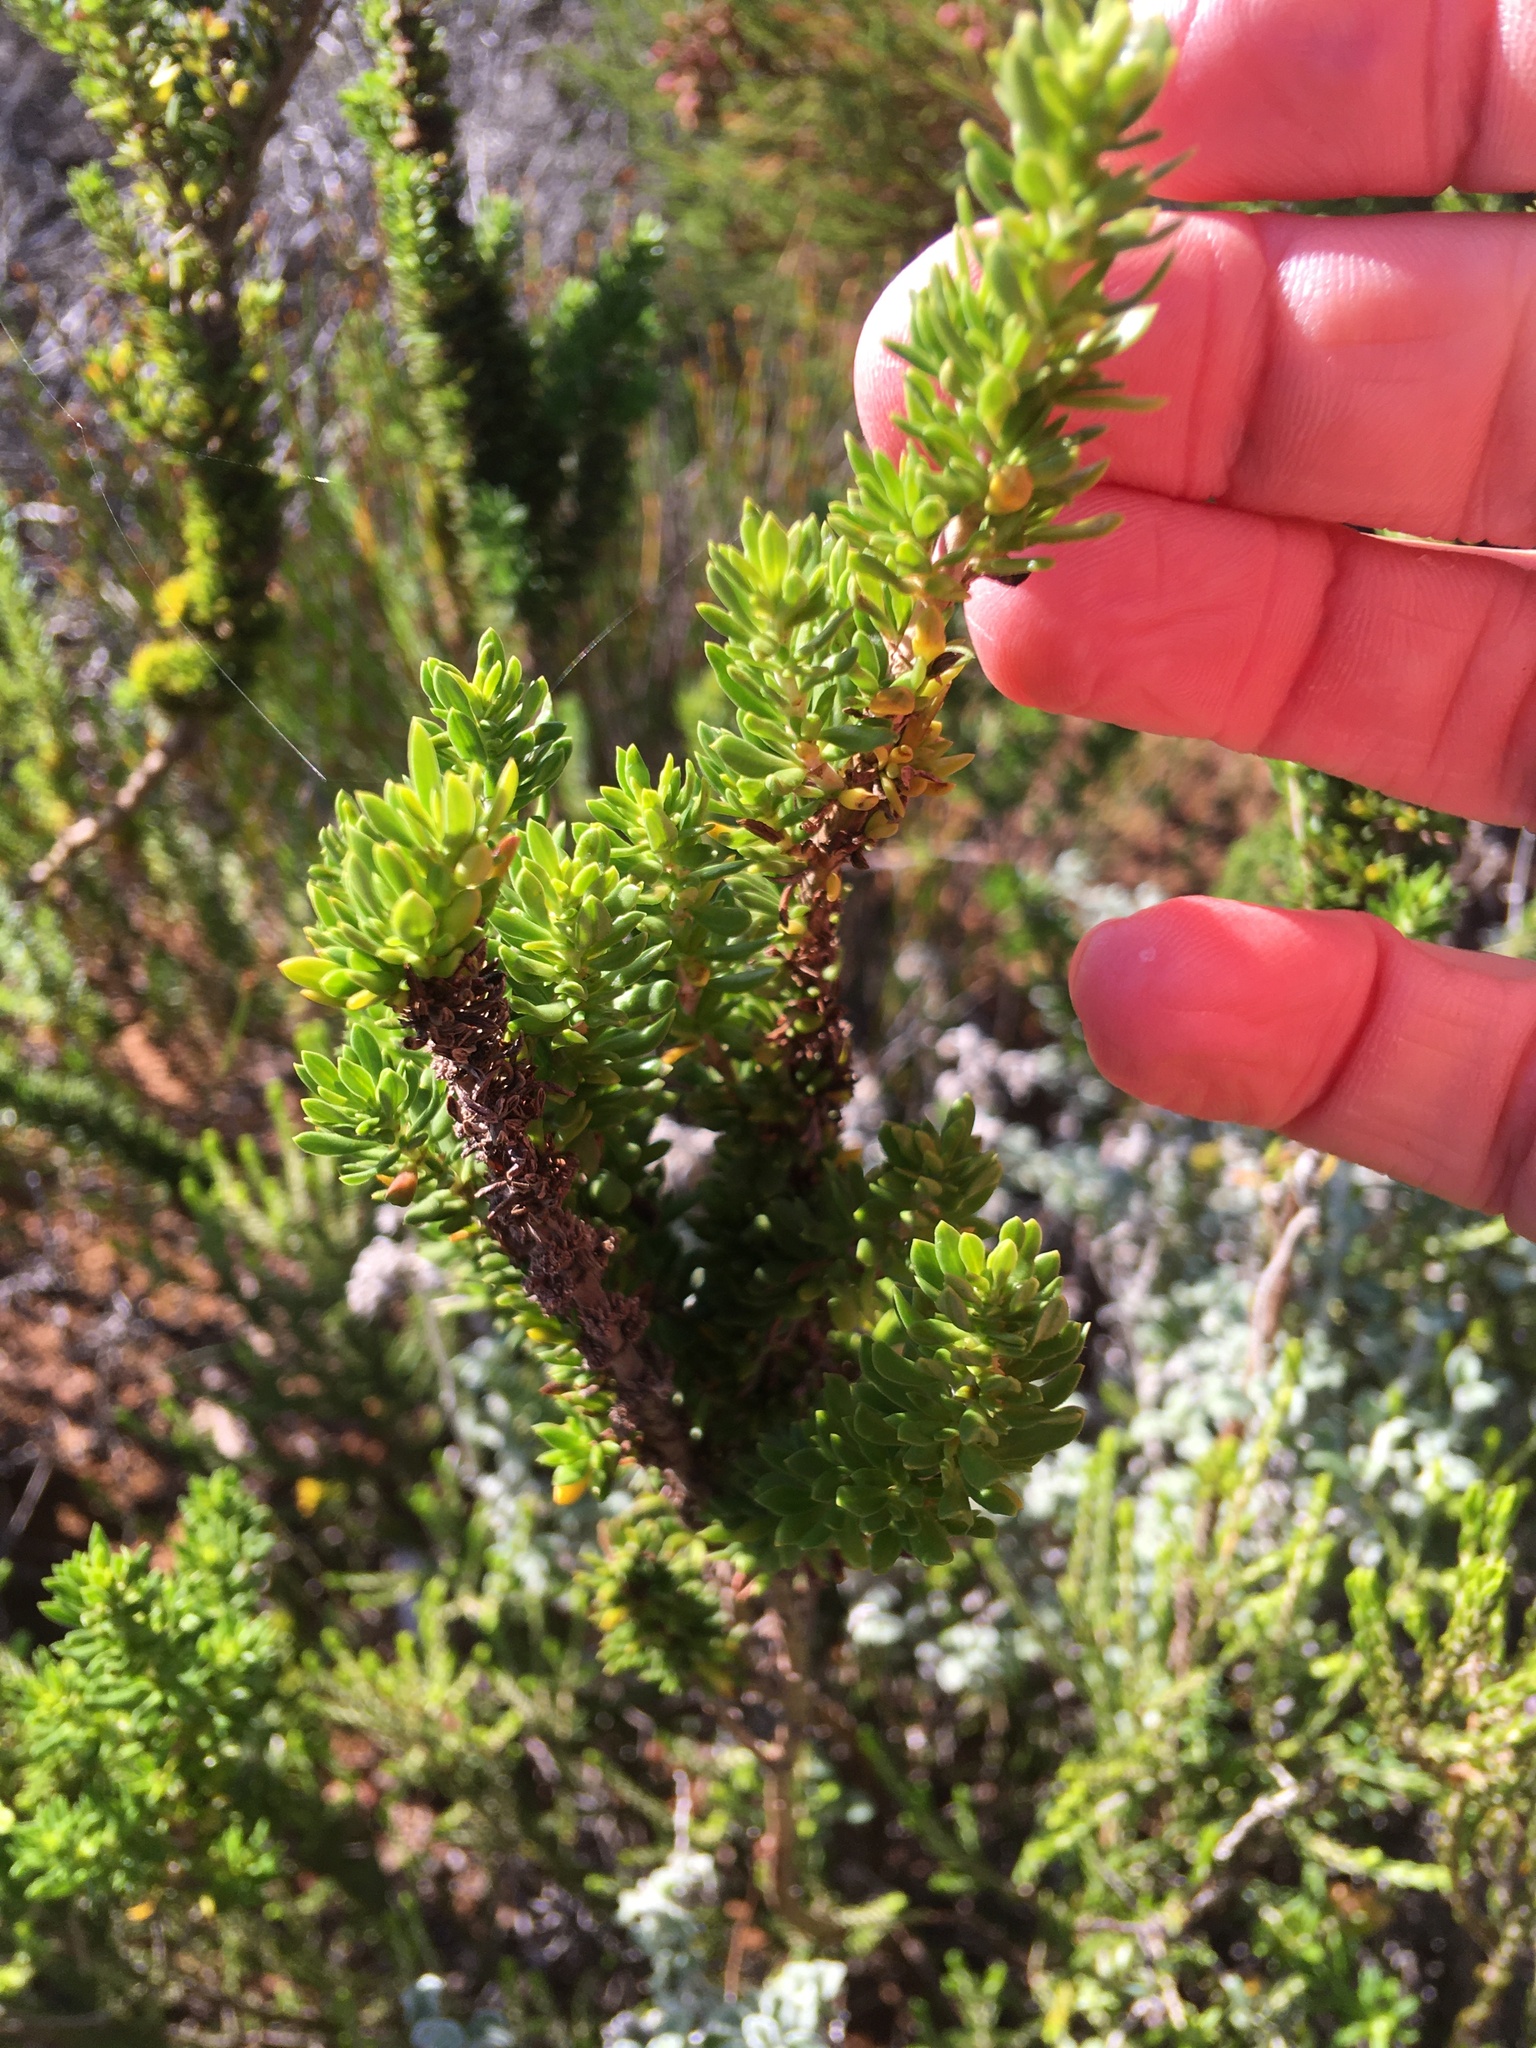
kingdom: Plantae
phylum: Tracheophyta
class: Magnoliopsida
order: Gentianales
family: Rubiaceae
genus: Anthospermum
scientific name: Anthospermum aethiopicum
